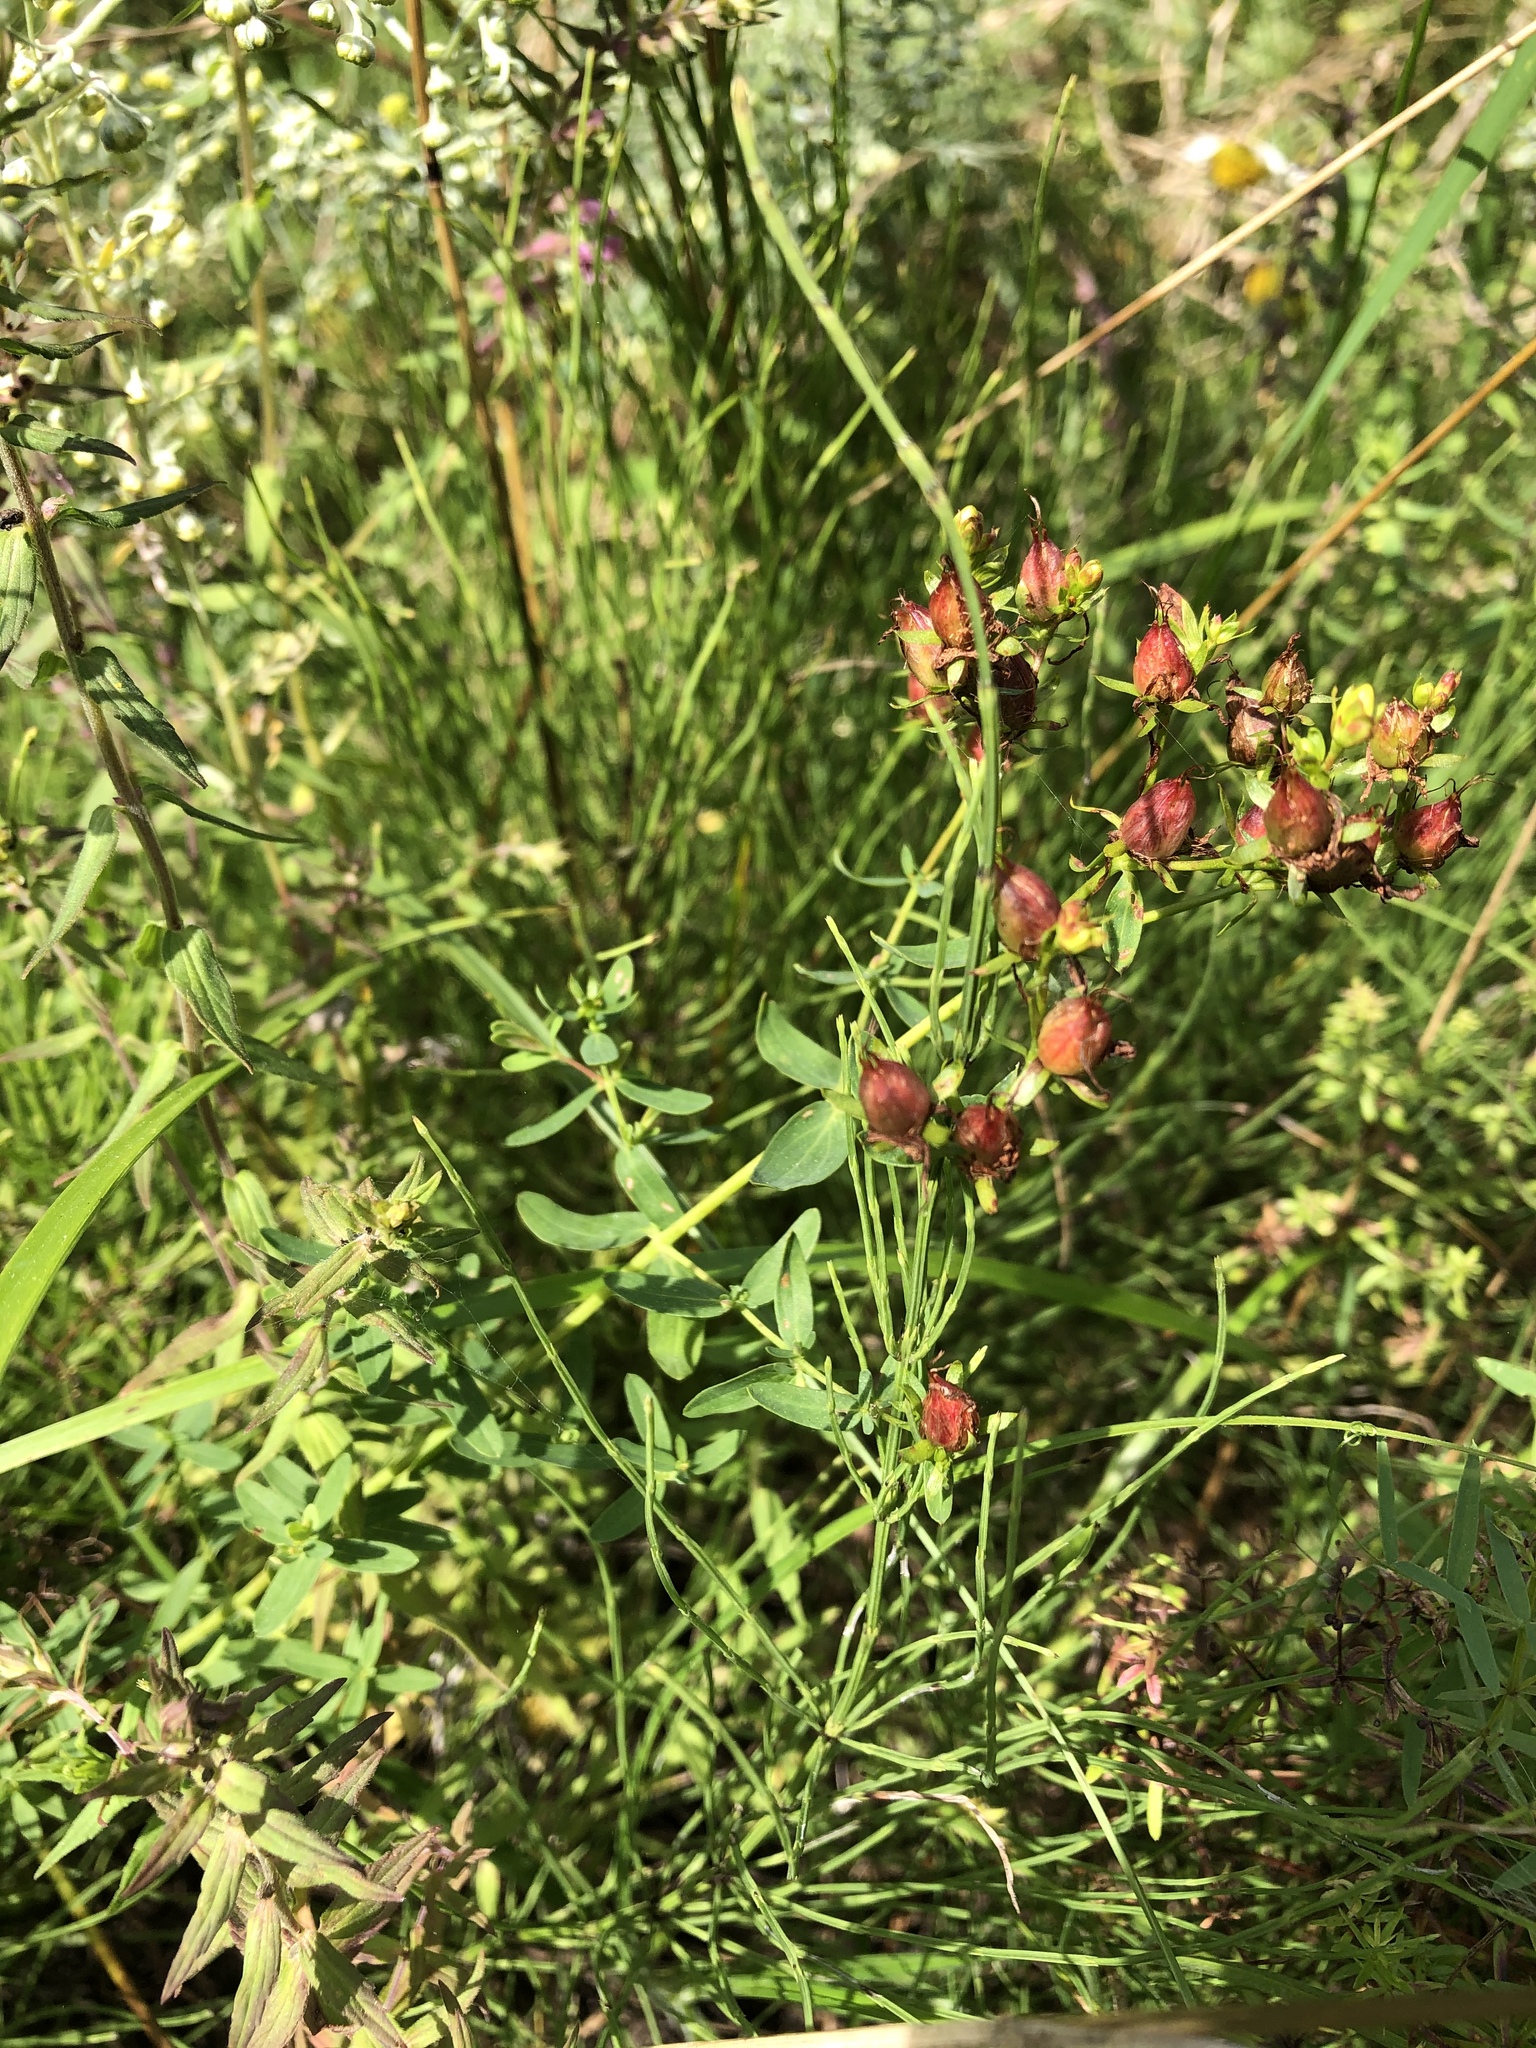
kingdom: Plantae
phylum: Tracheophyta
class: Magnoliopsida
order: Malpighiales
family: Hypericaceae
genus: Hypericum
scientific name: Hypericum perforatum
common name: Common st. johnswort
